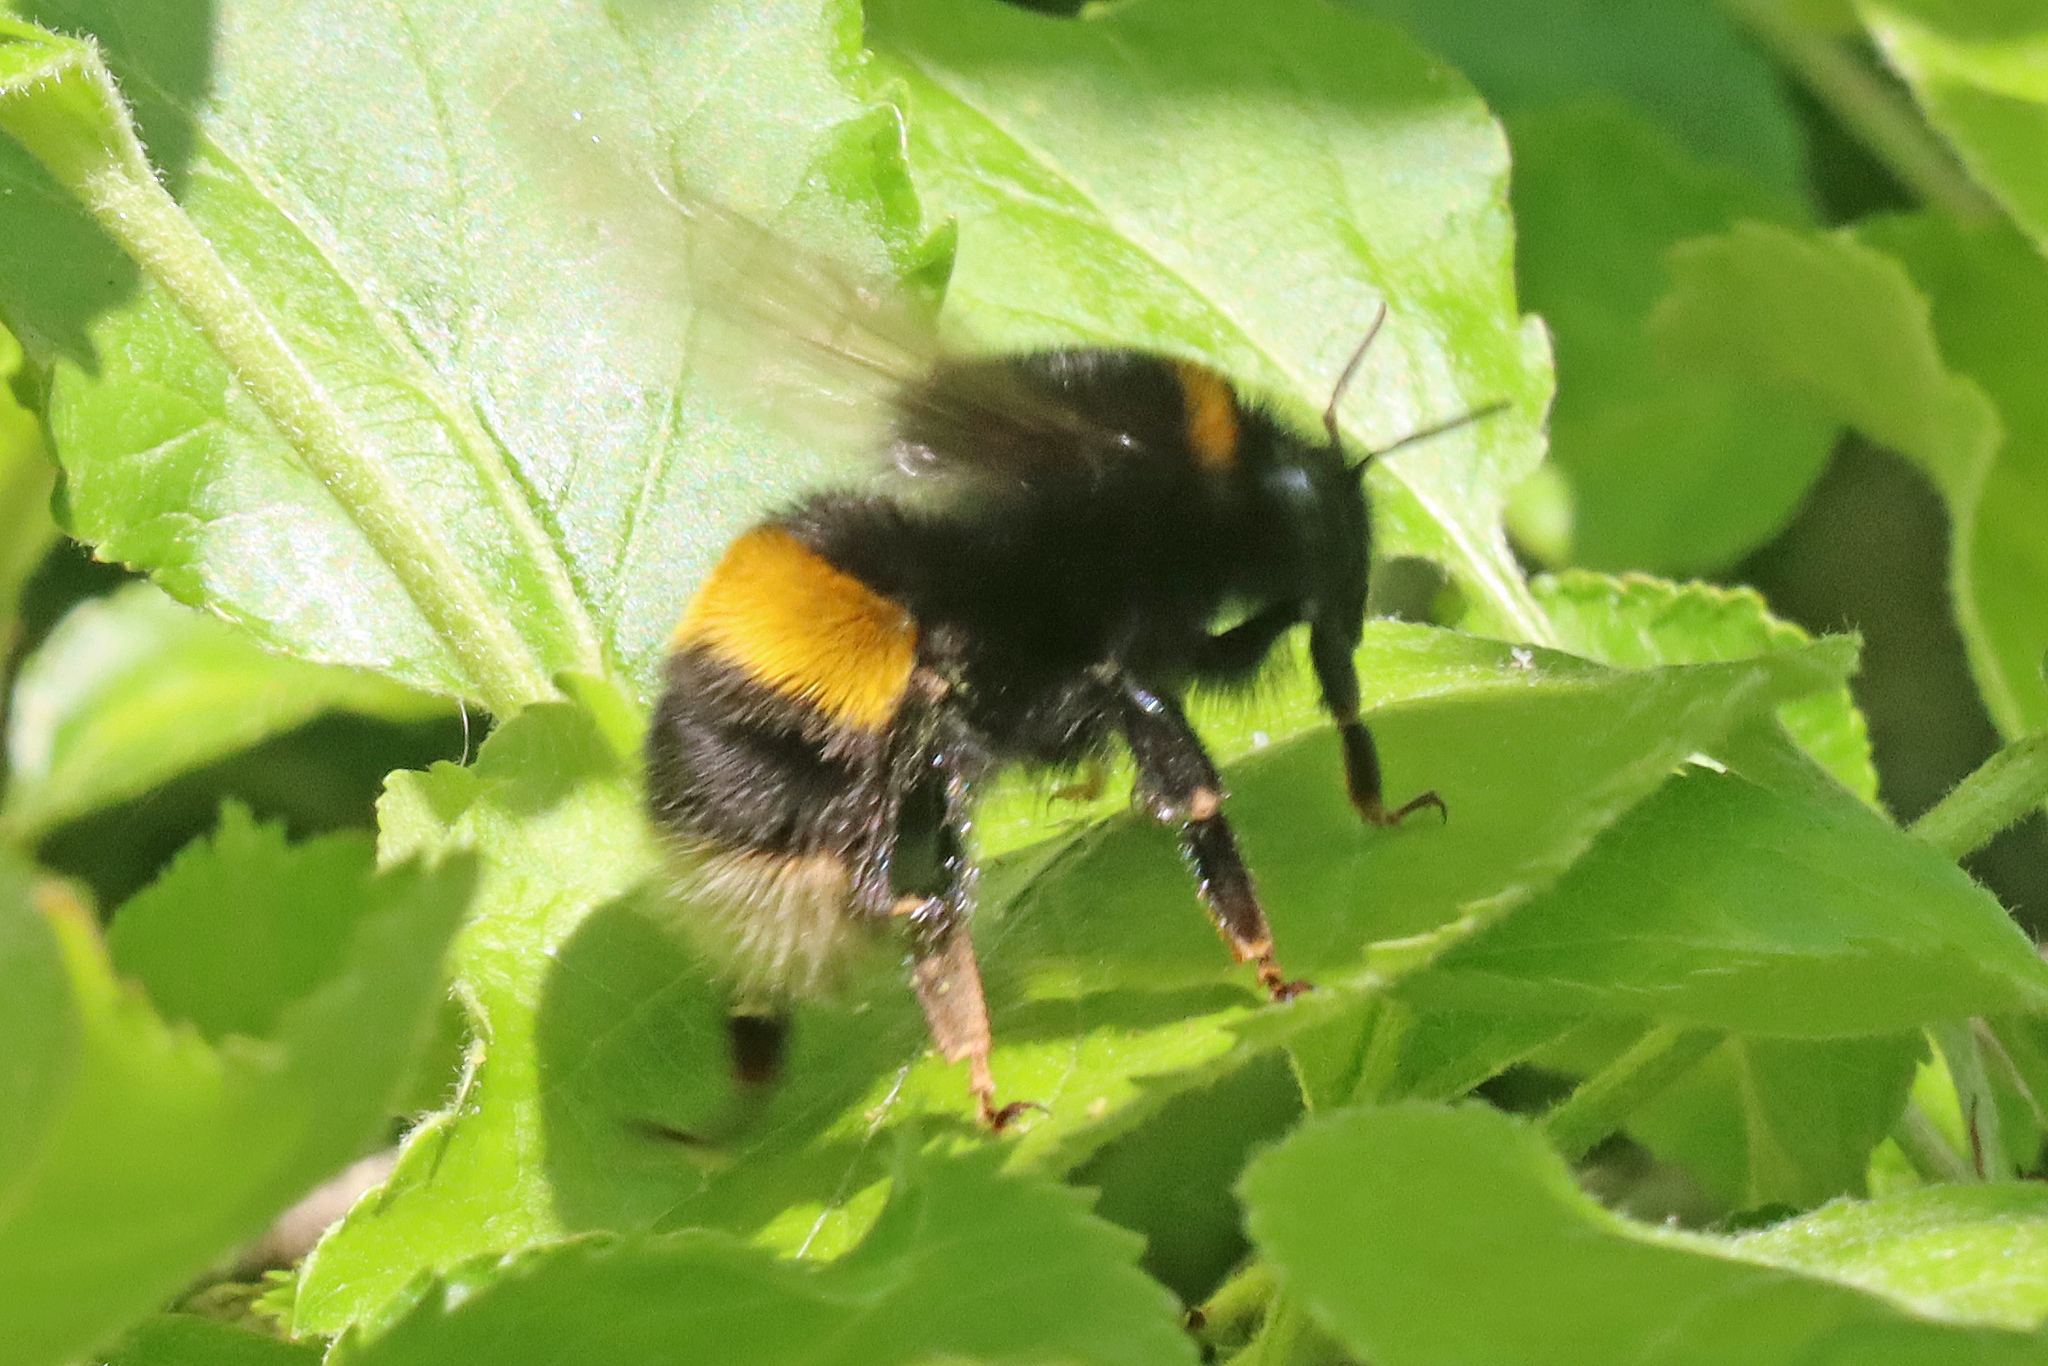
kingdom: Animalia
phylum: Arthropoda
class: Insecta
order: Hymenoptera
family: Apidae
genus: Bombus
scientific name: Bombus terrestris
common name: Buff-tailed bumblebee
